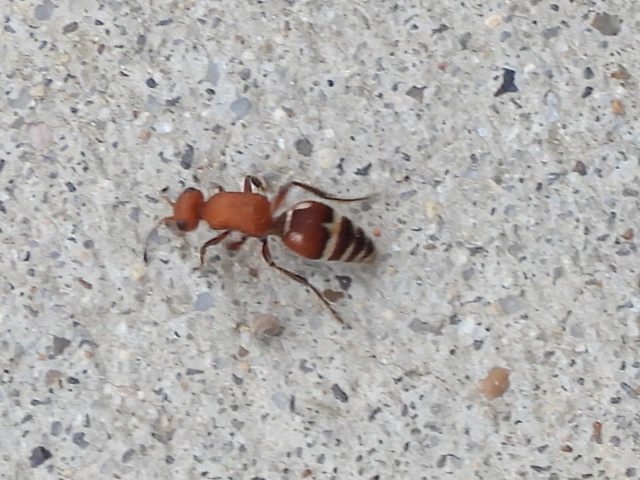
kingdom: Animalia
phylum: Arthropoda
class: Insecta
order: Hymenoptera
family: Mutillidae
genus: Timulla
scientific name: Timulla
